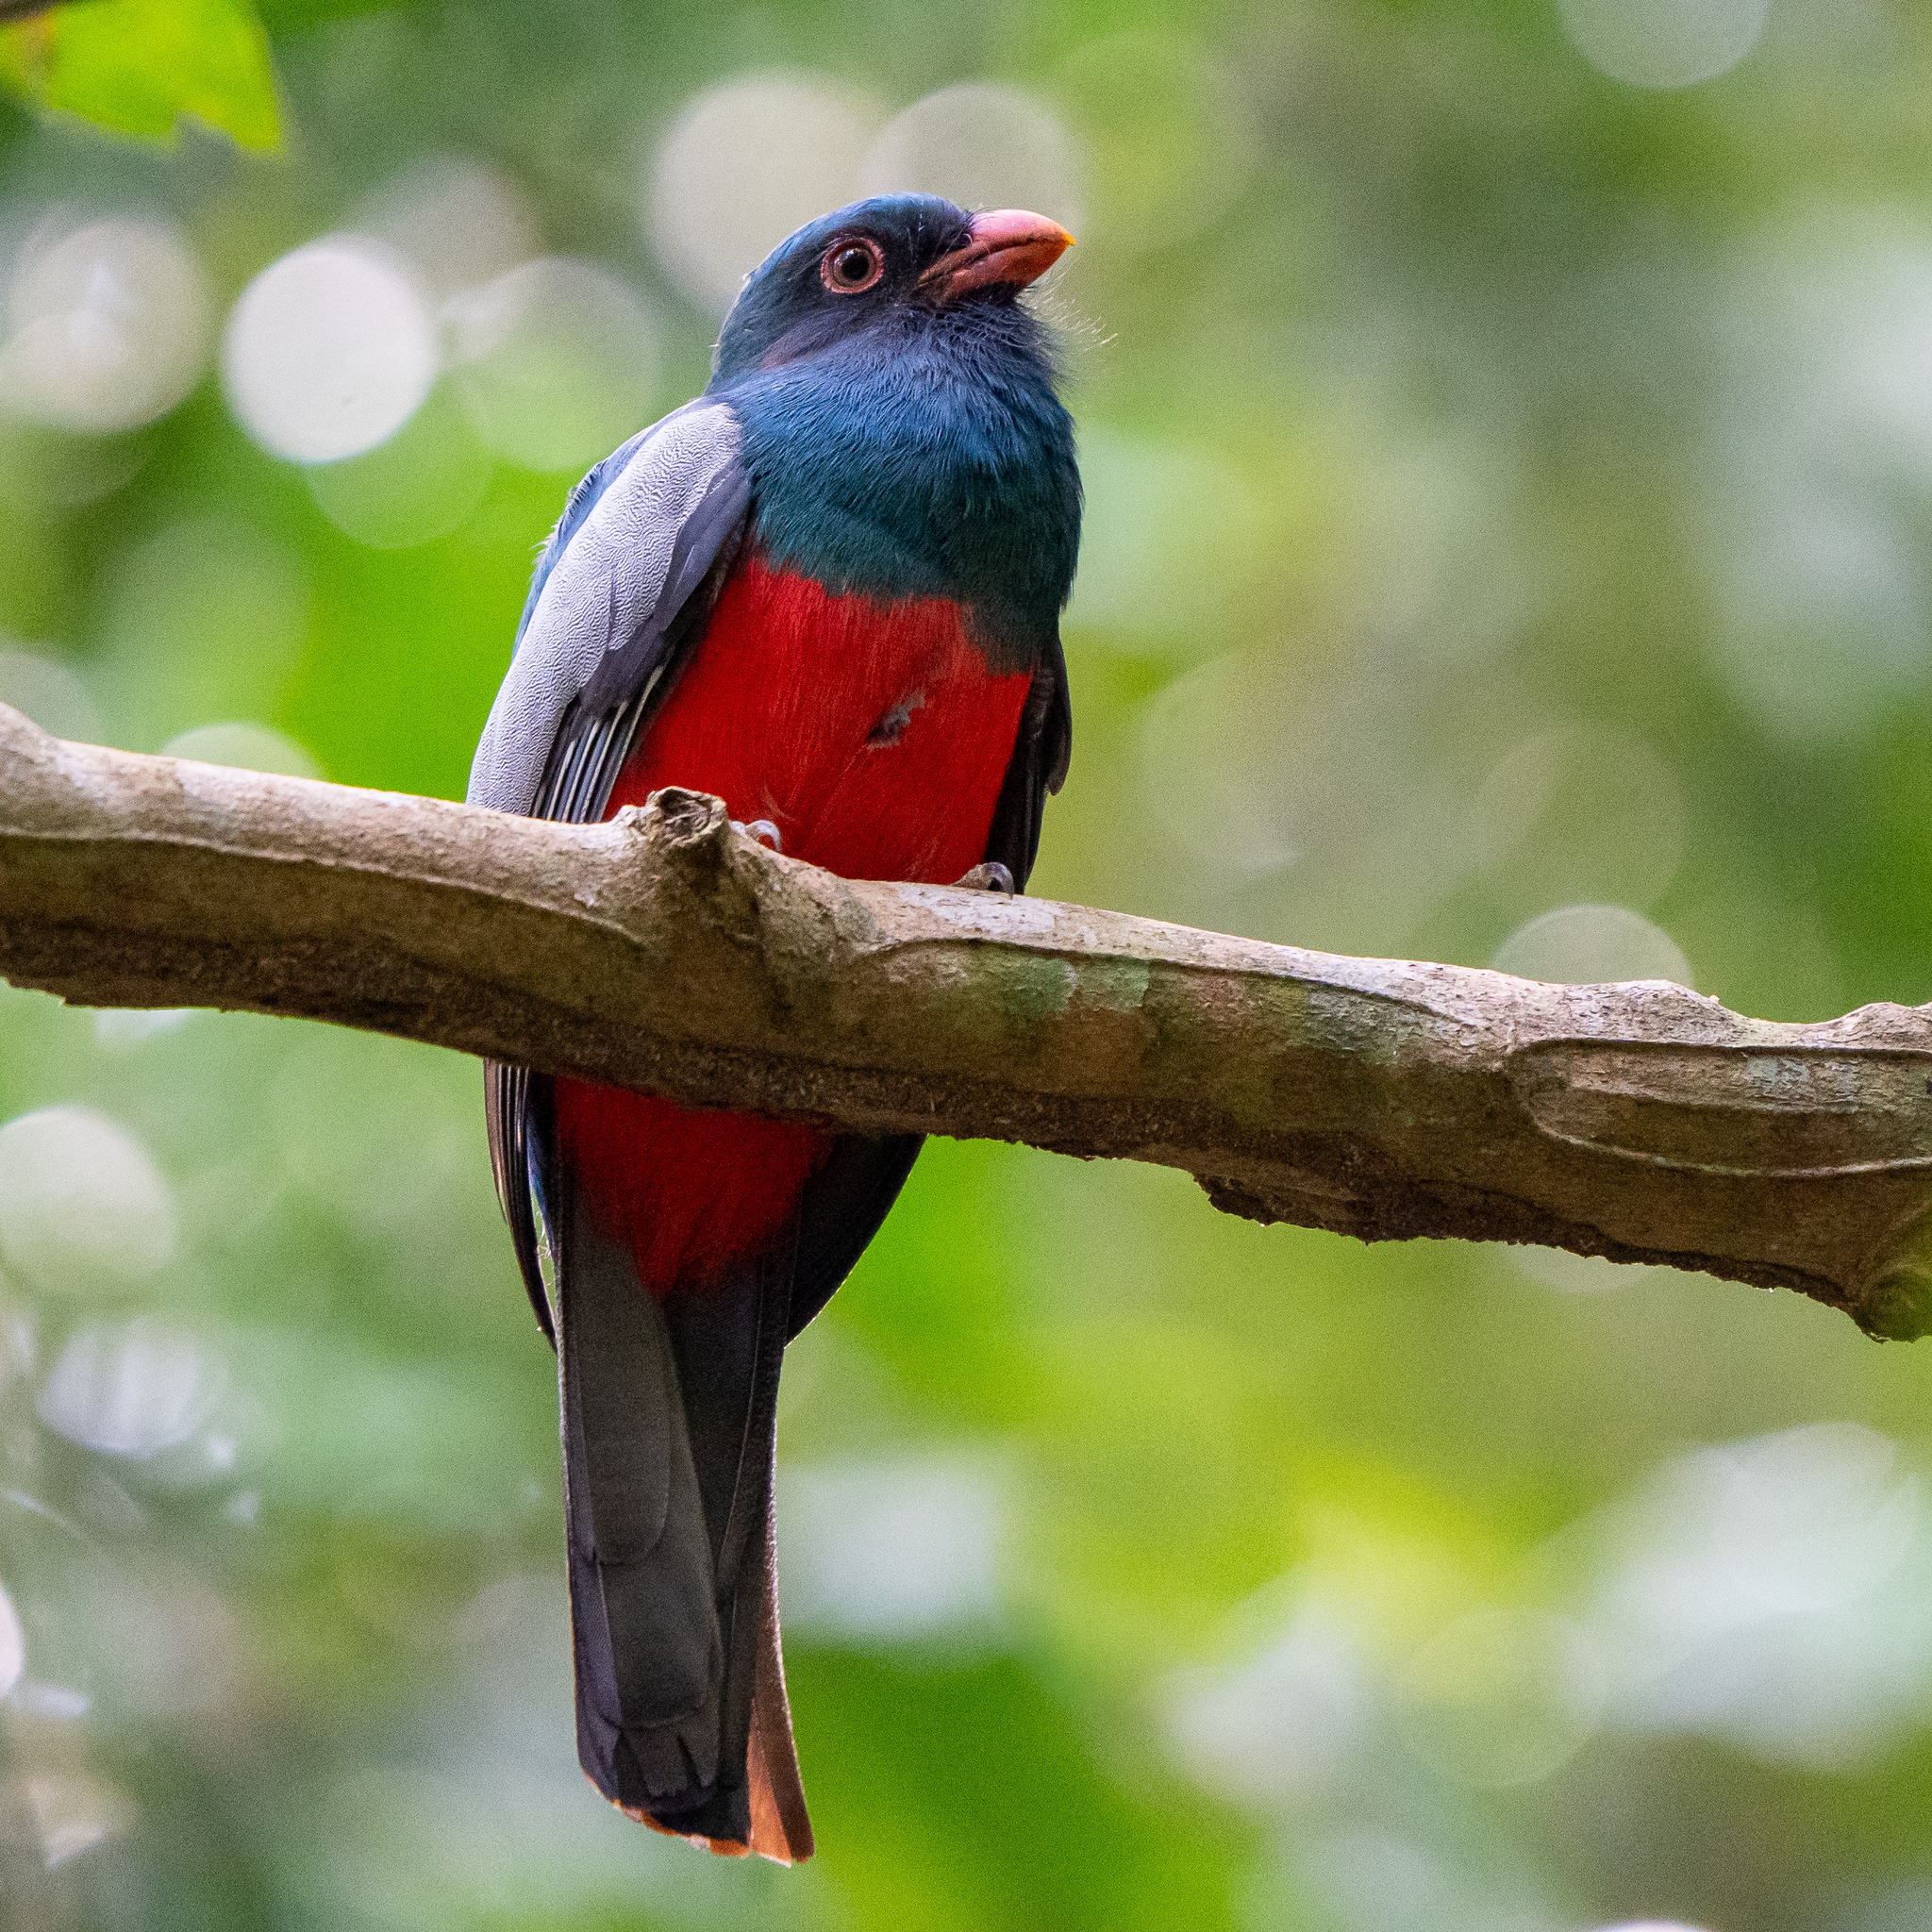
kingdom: Animalia
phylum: Chordata
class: Aves
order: Trogoniformes
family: Trogonidae
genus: Trogon
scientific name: Trogon massena
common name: Slaty-tailed trogon
